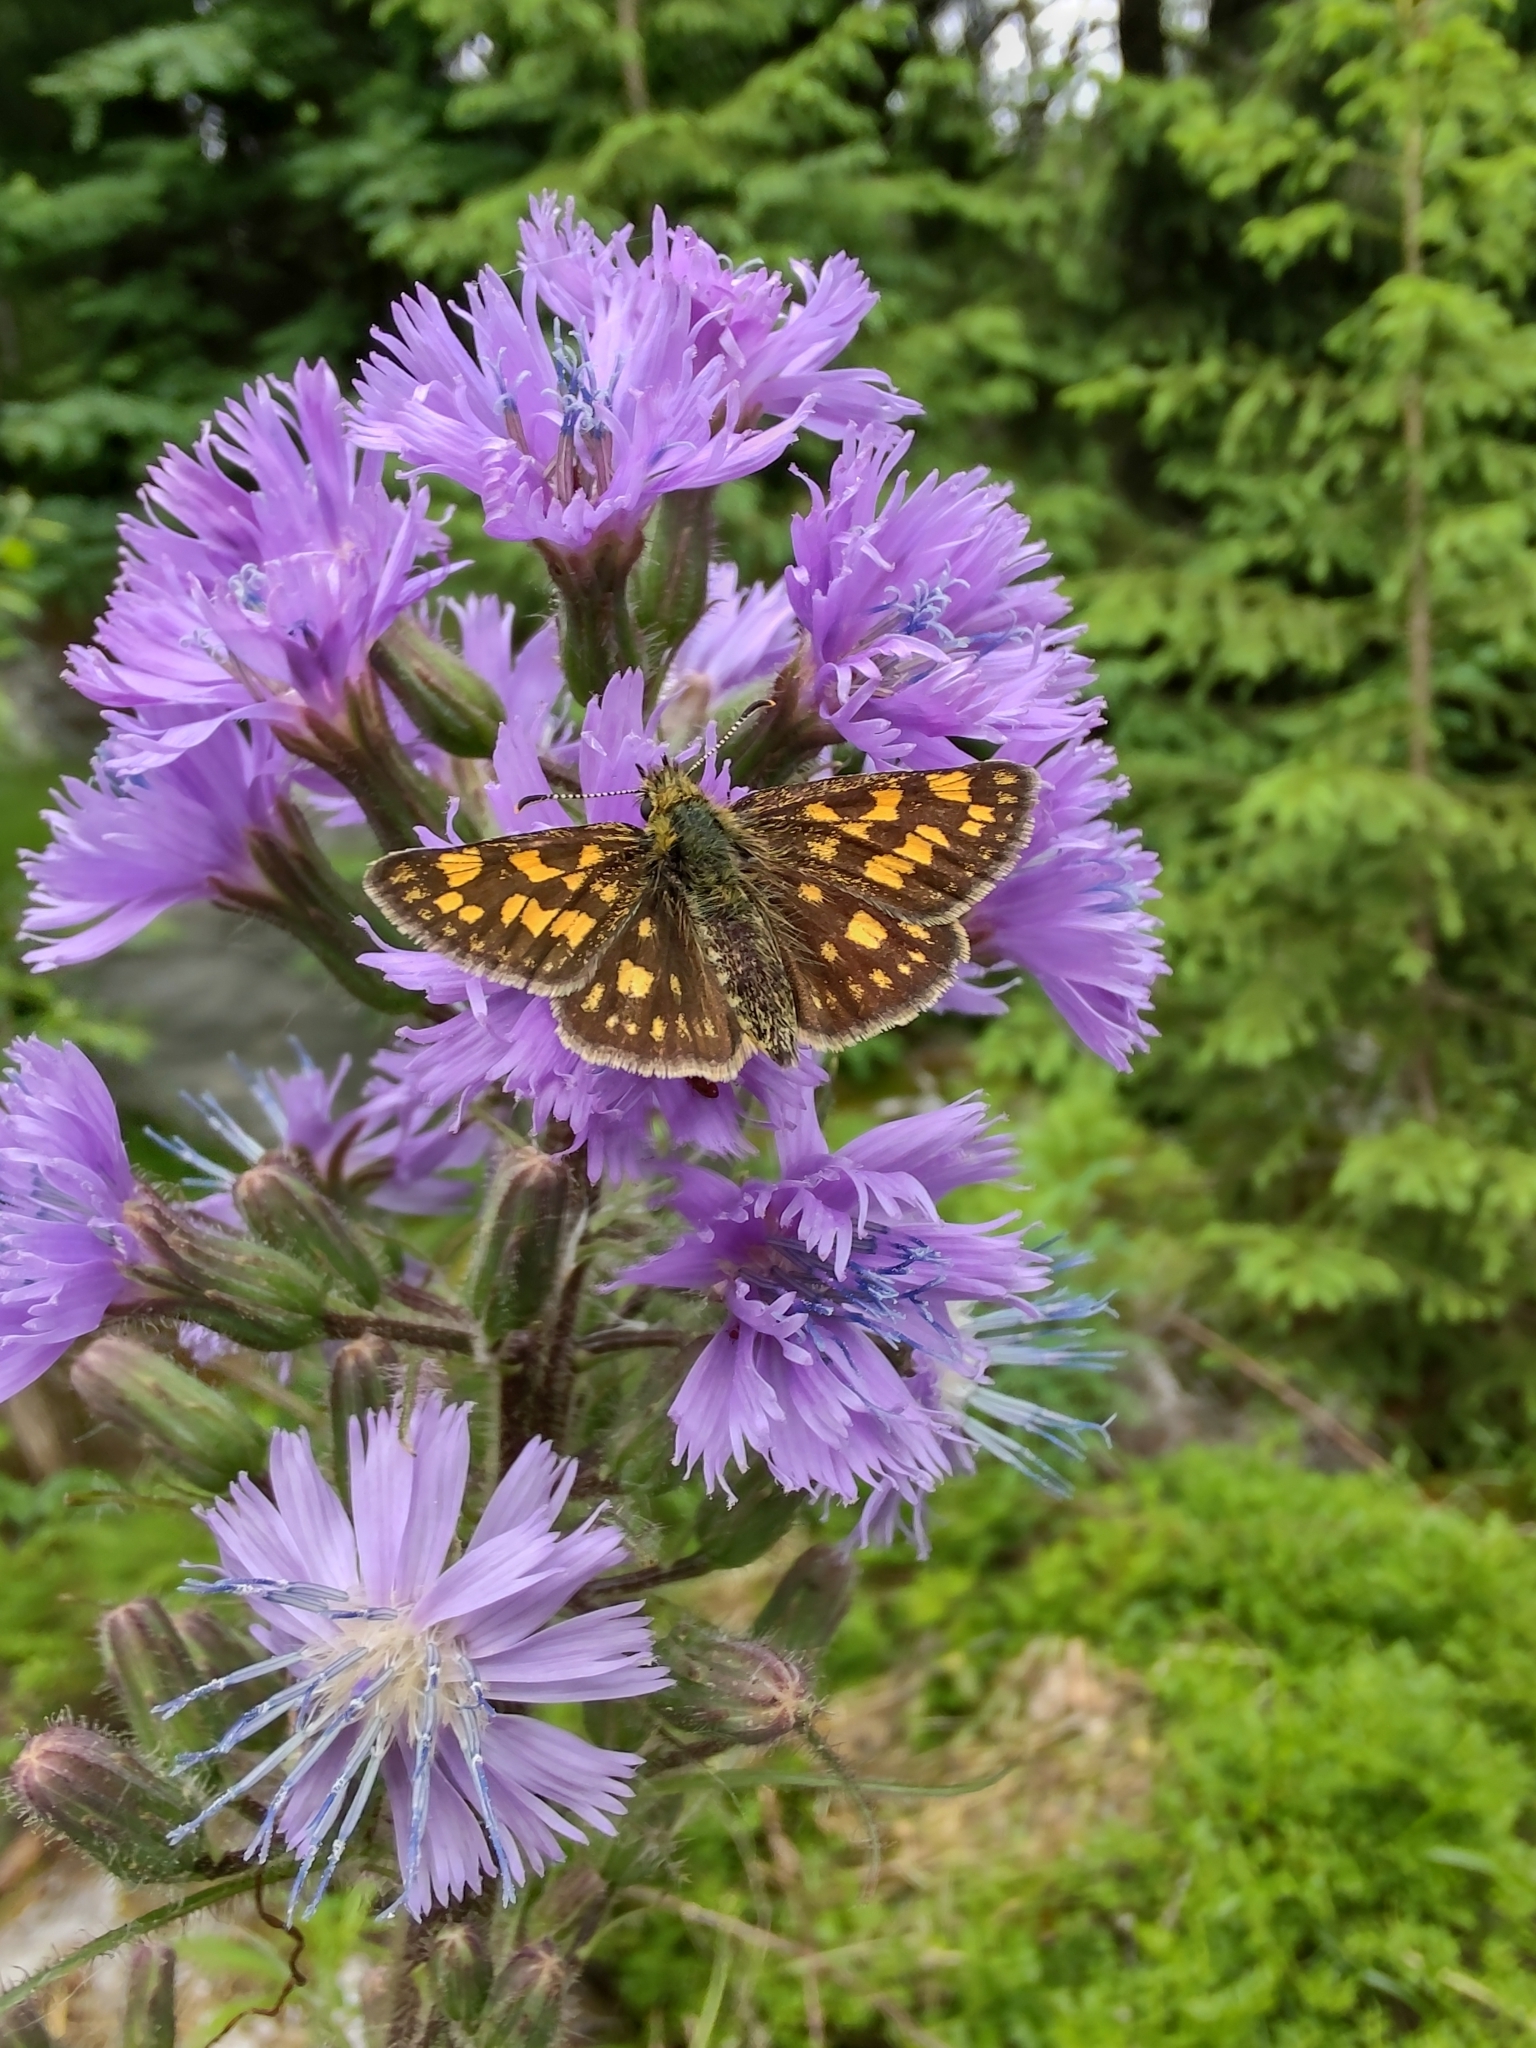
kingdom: Animalia
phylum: Arthropoda
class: Insecta
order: Lepidoptera
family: Hesperiidae
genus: Carterocephalus
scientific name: Carterocephalus palaemon
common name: Chequered skipper
